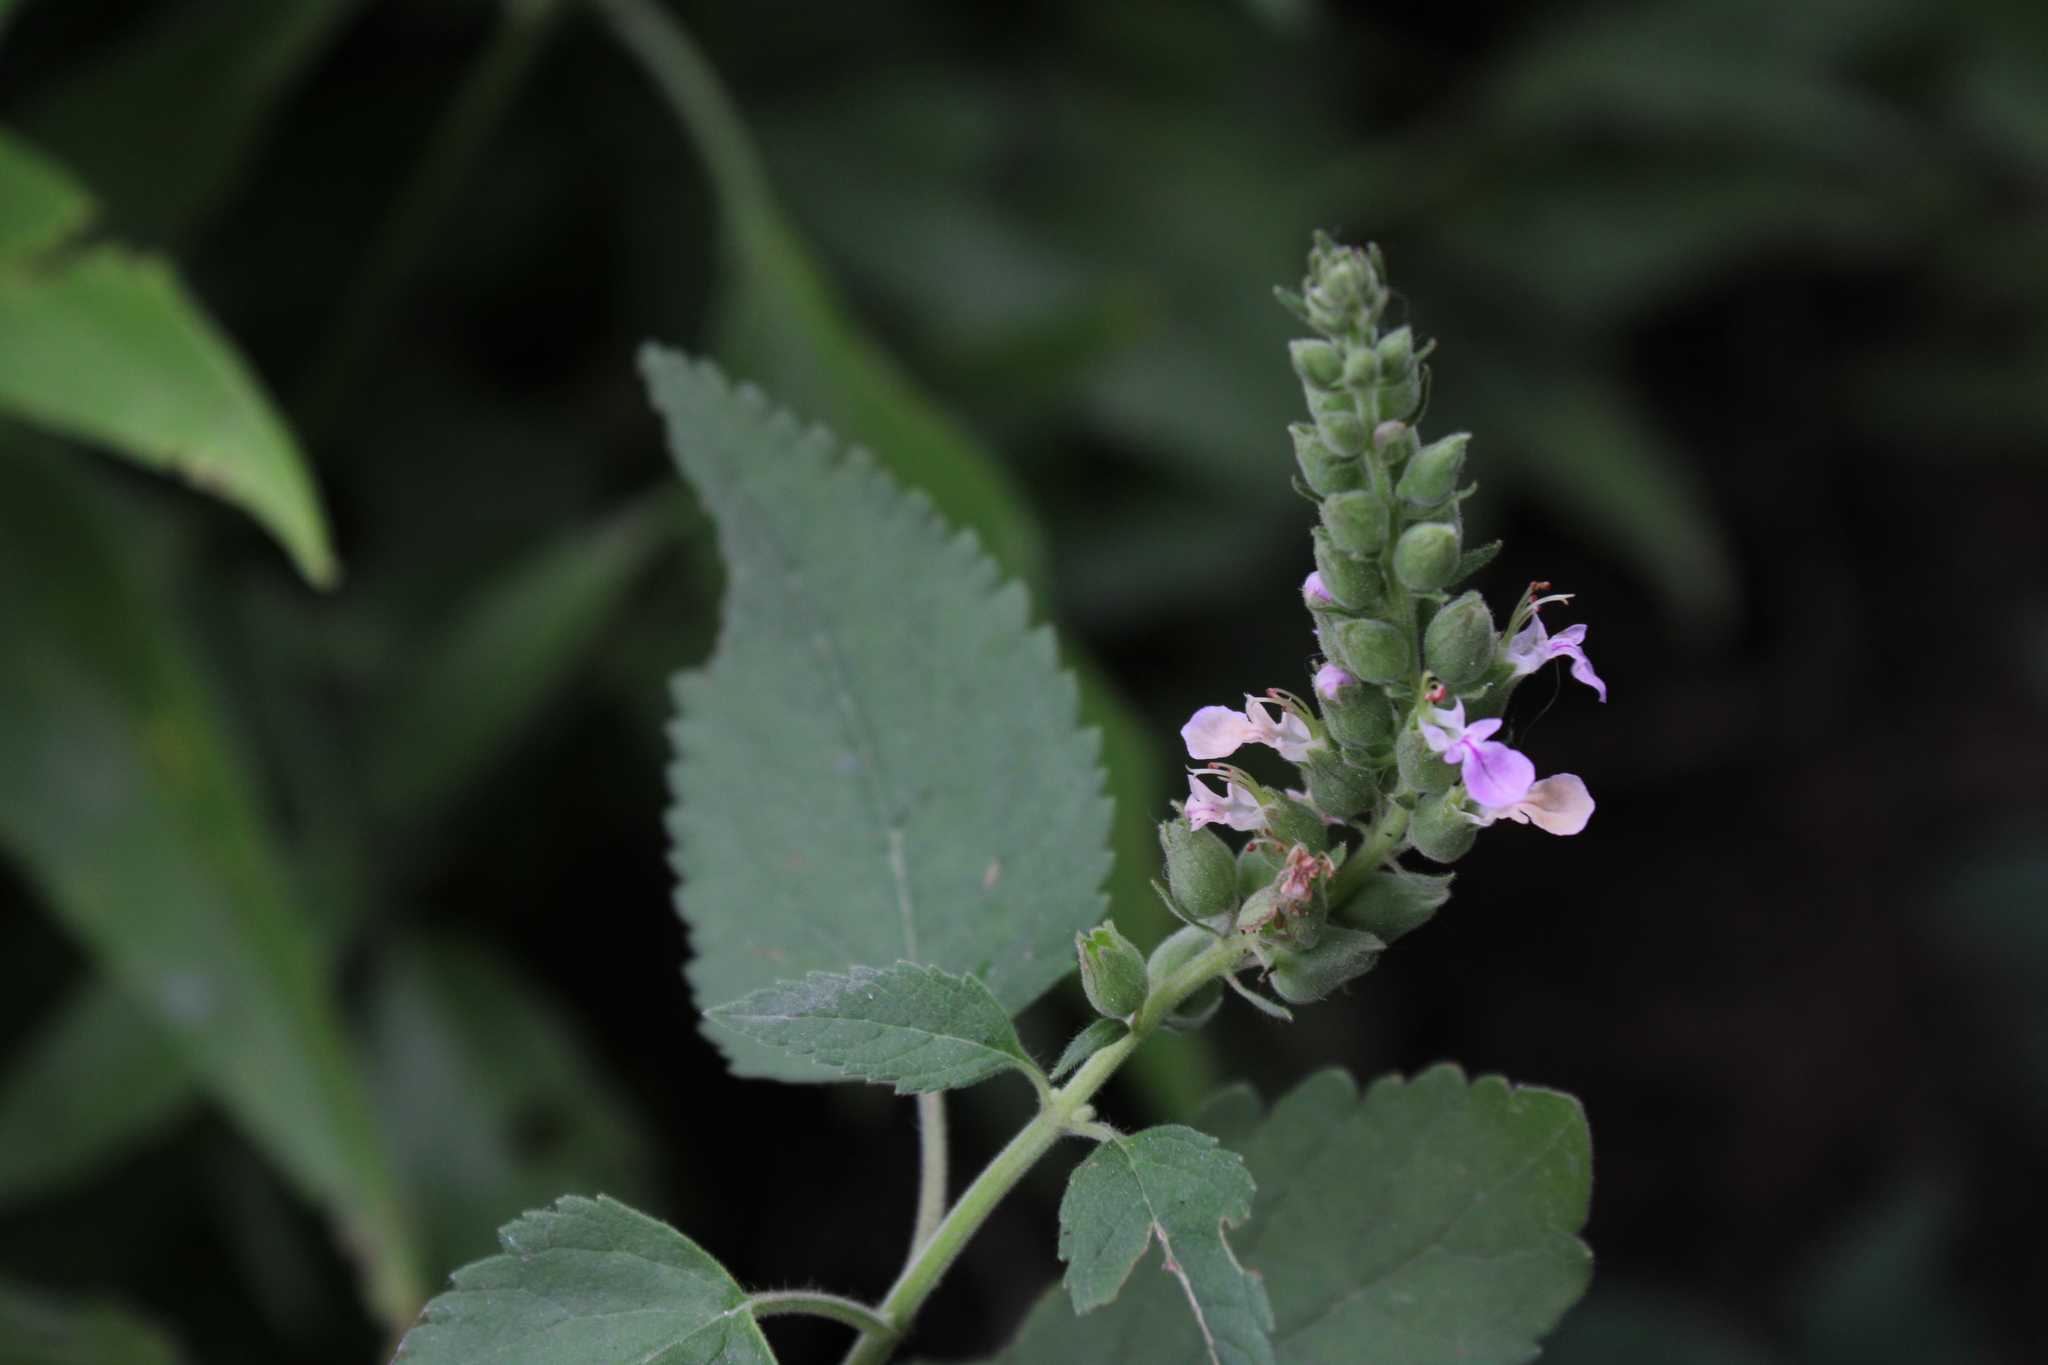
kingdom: Plantae
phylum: Tracheophyta
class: Magnoliopsida
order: Lamiales
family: Lamiaceae
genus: Teucrium
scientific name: Teucrium vesicarium
